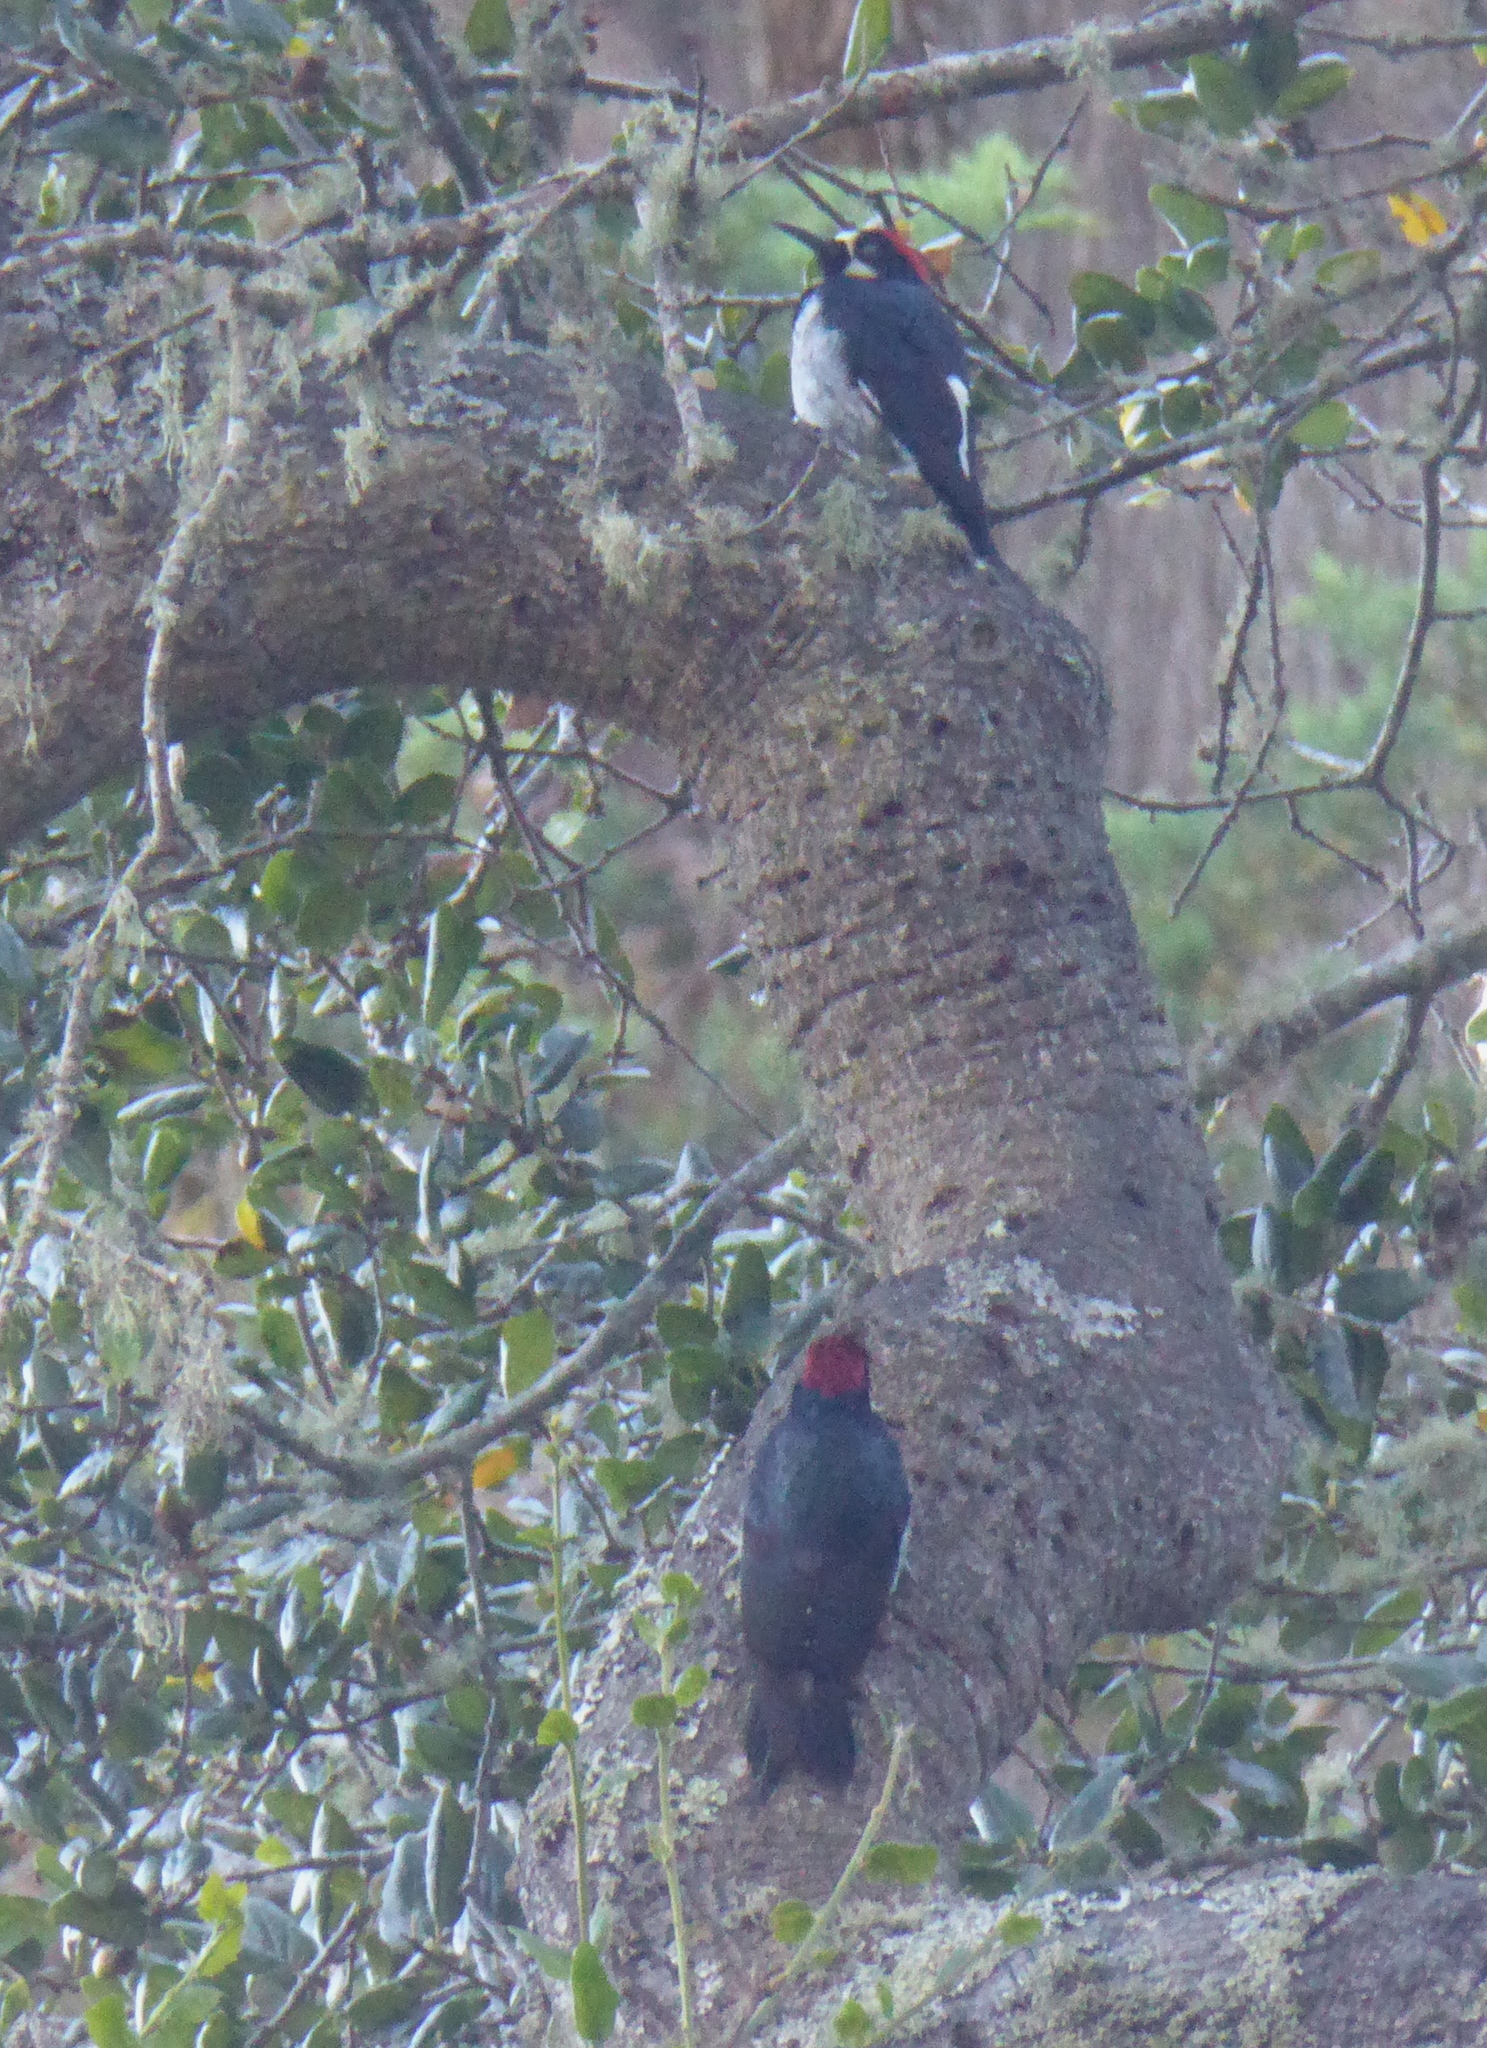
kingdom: Animalia
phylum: Chordata
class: Aves
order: Piciformes
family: Picidae
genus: Melanerpes
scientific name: Melanerpes formicivorus
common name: Acorn woodpecker
